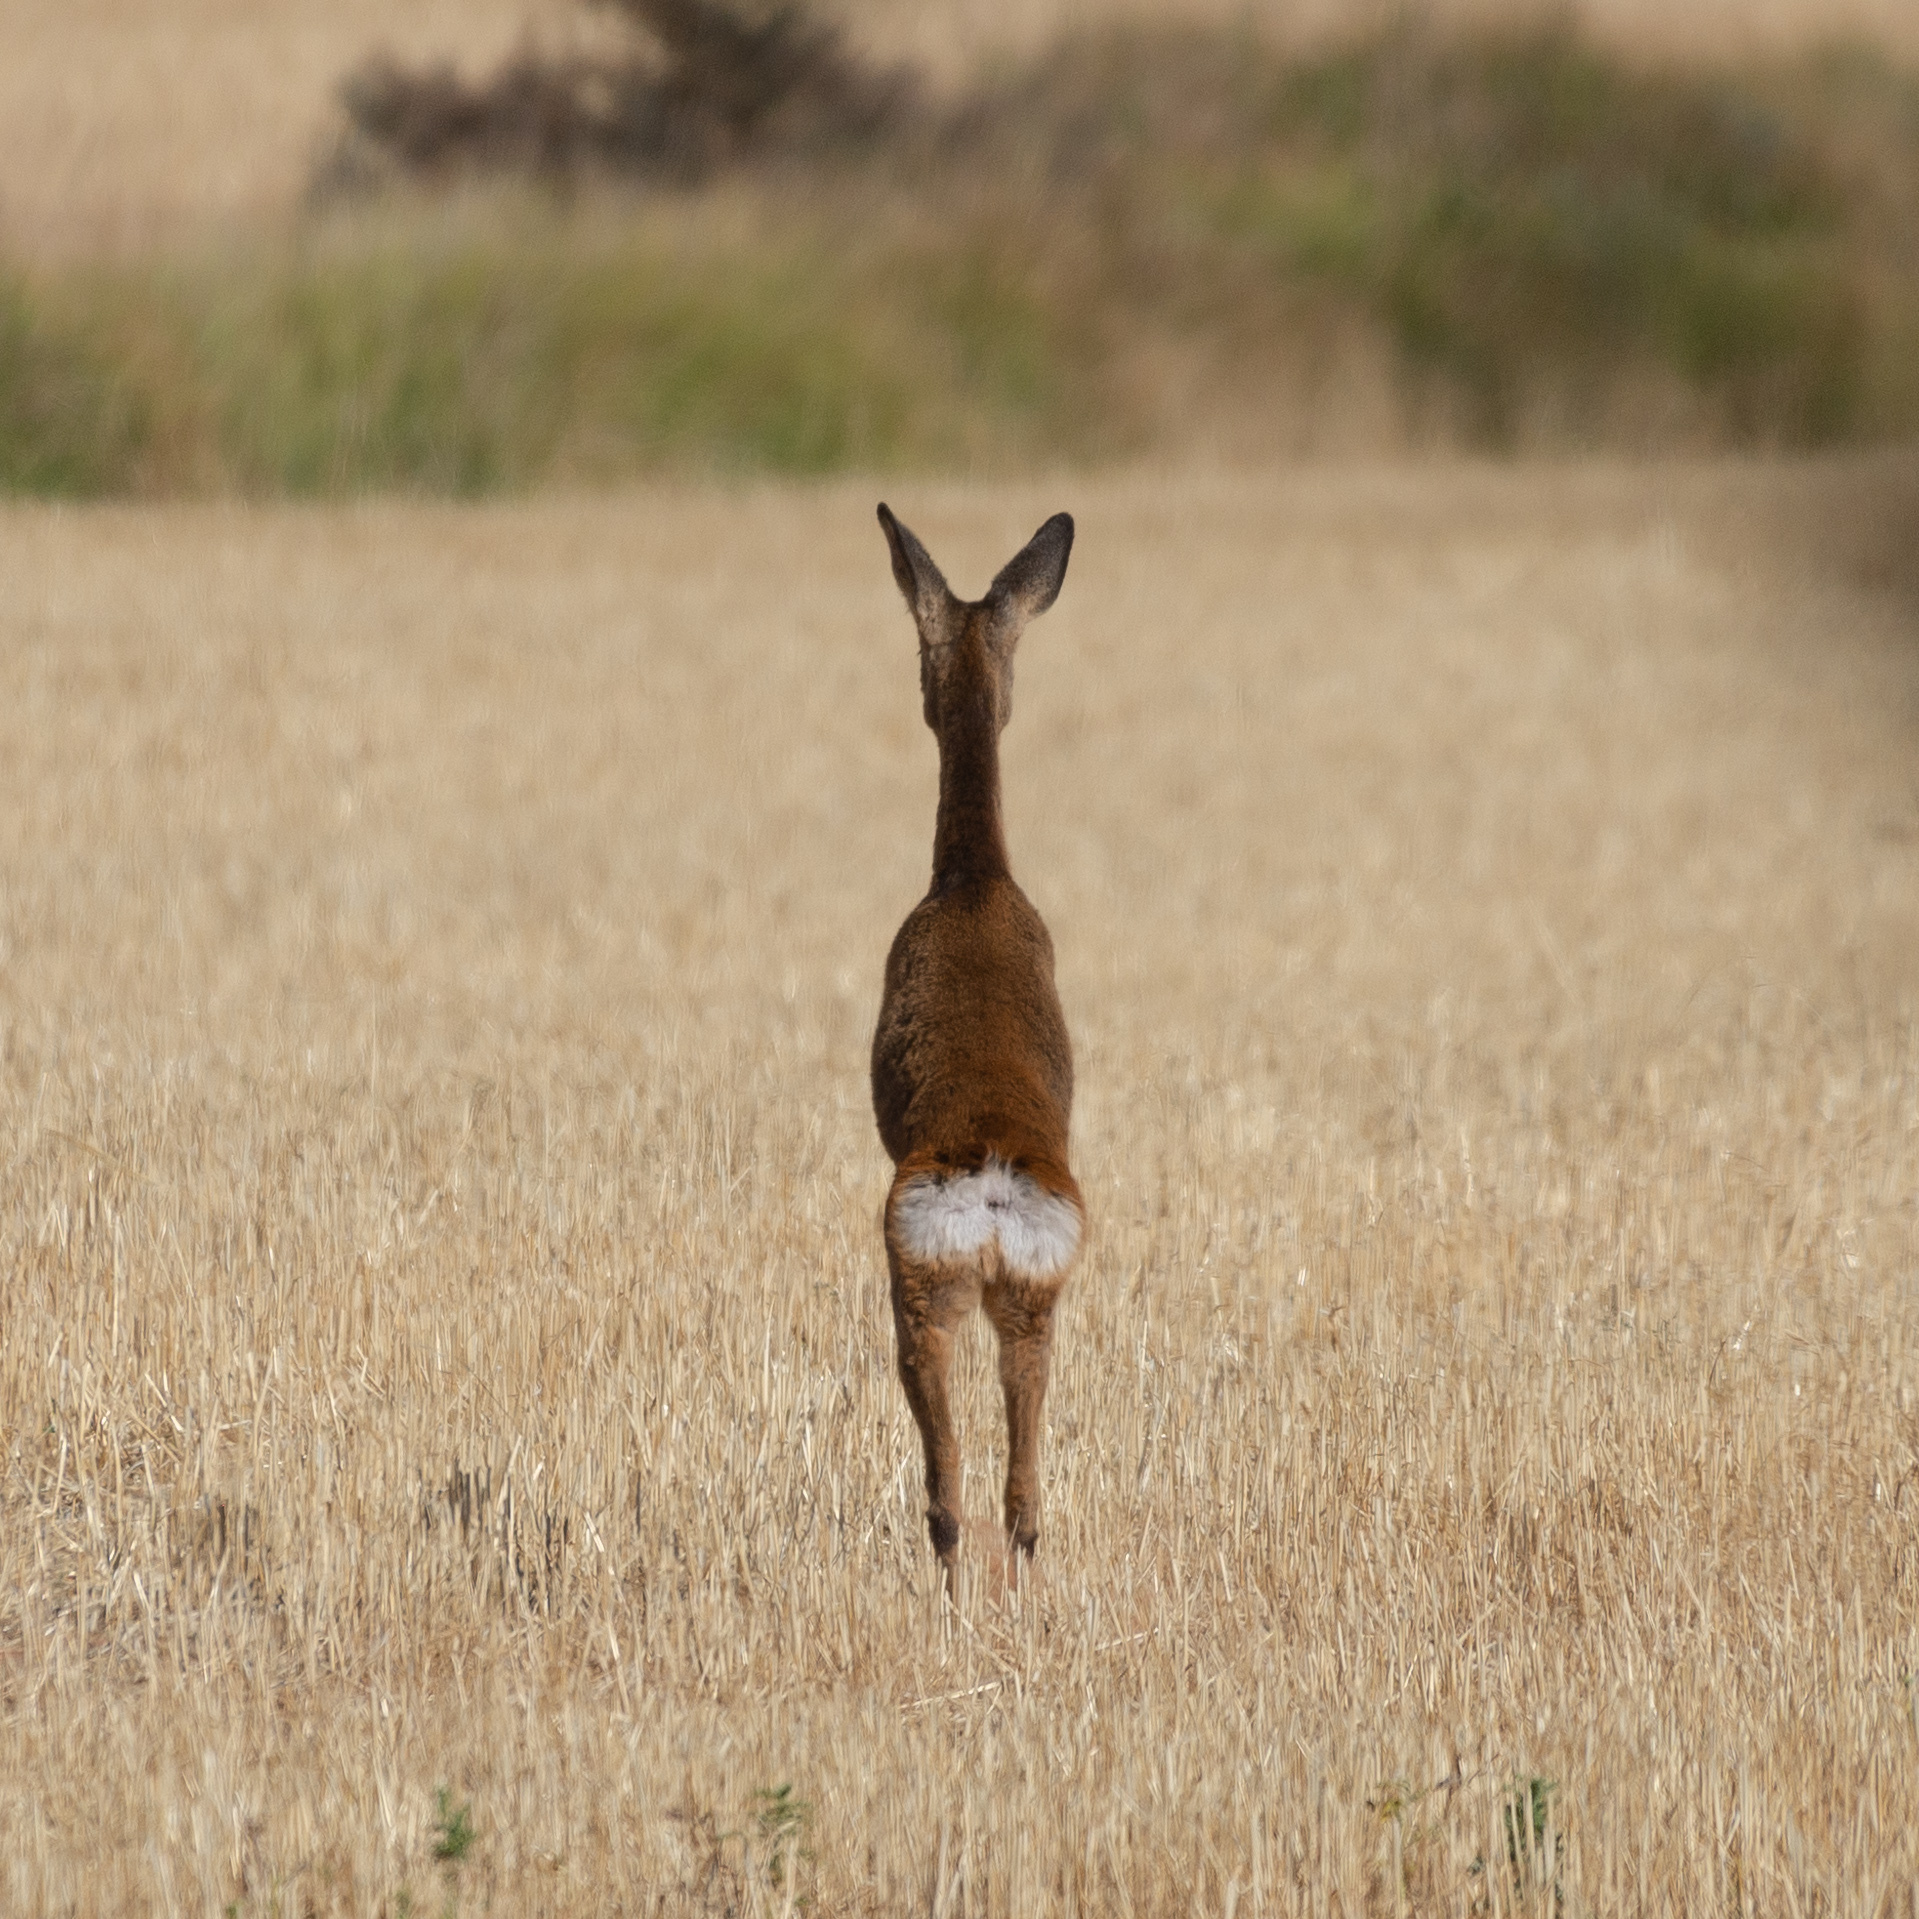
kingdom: Animalia
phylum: Chordata
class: Mammalia
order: Artiodactyla
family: Cervidae
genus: Capreolus
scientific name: Capreolus capreolus
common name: Western roe deer
